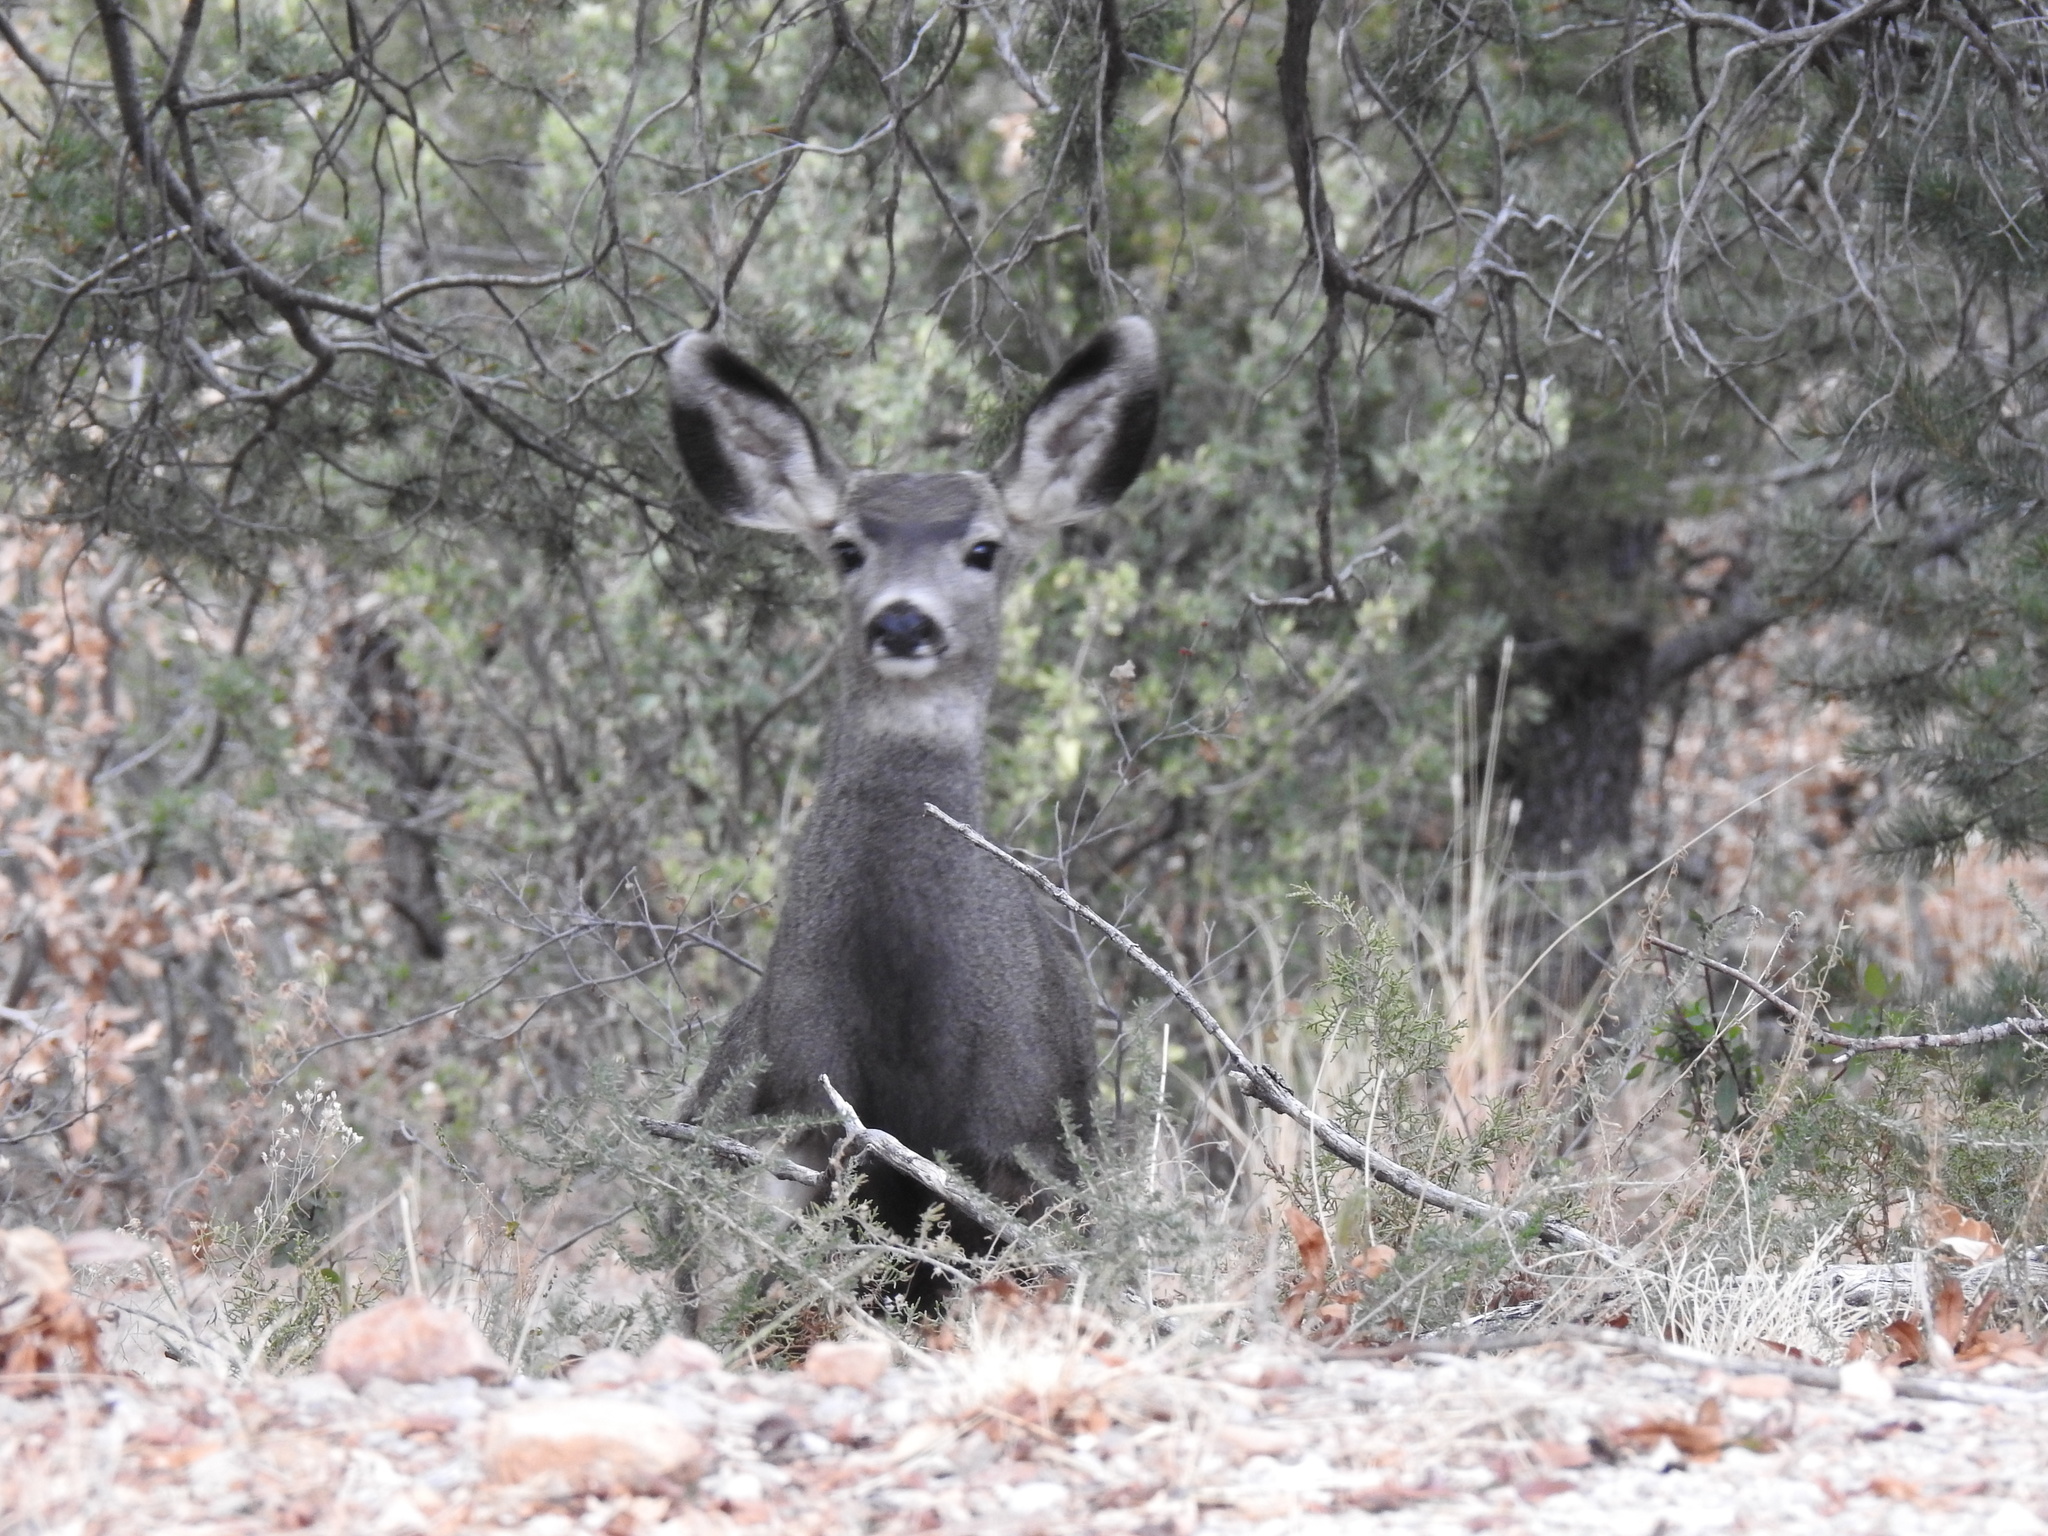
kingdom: Animalia
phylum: Chordata
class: Mammalia
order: Artiodactyla
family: Cervidae
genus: Odocoileus
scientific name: Odocoileus hemionus
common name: Mule deer
